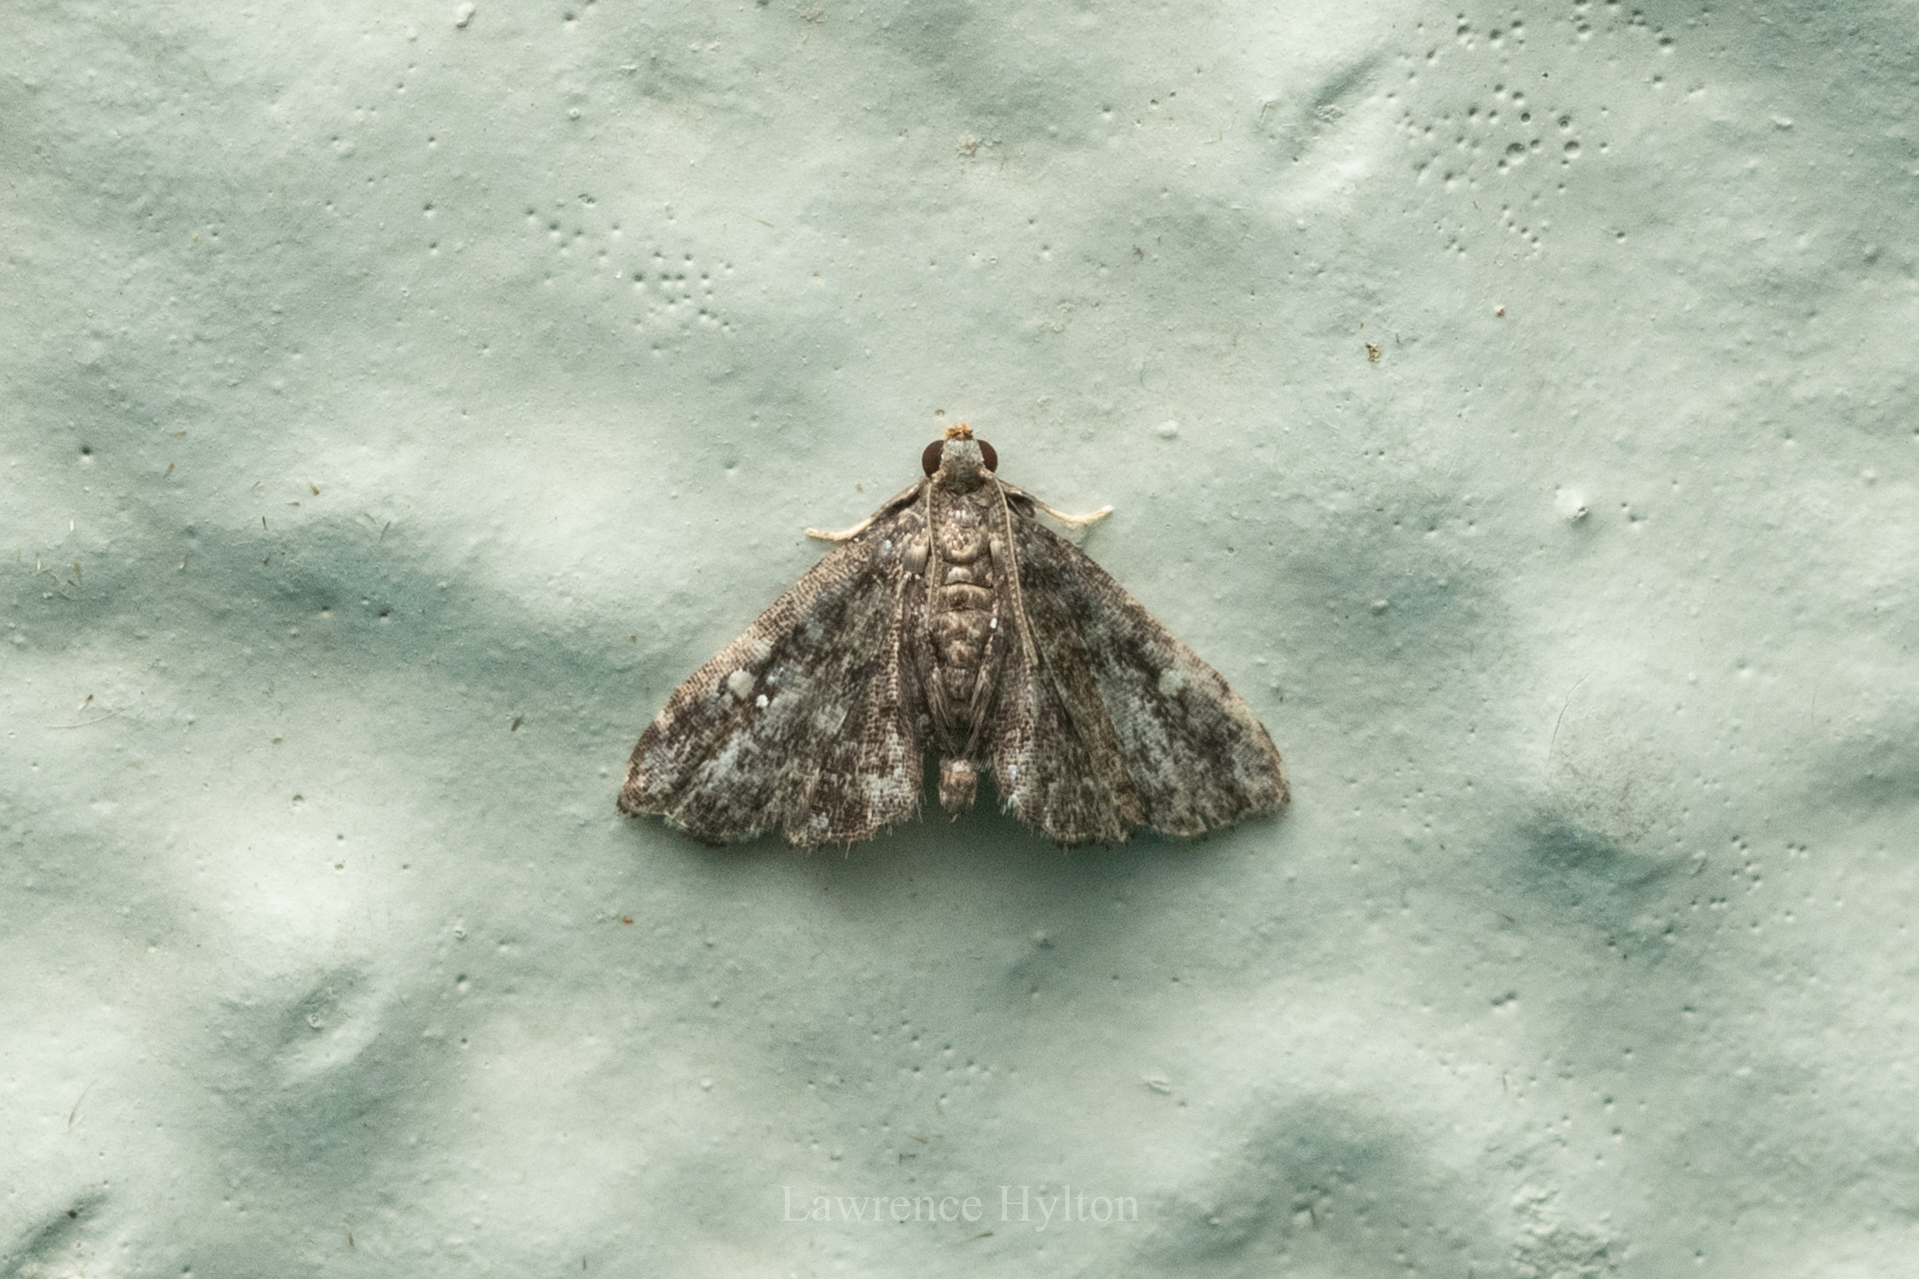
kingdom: Animalia
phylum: Arthropoda
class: Insecta
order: Lepidoptera
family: Pyralidae
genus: Drosophantis
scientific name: Drosophantis caeruleata
